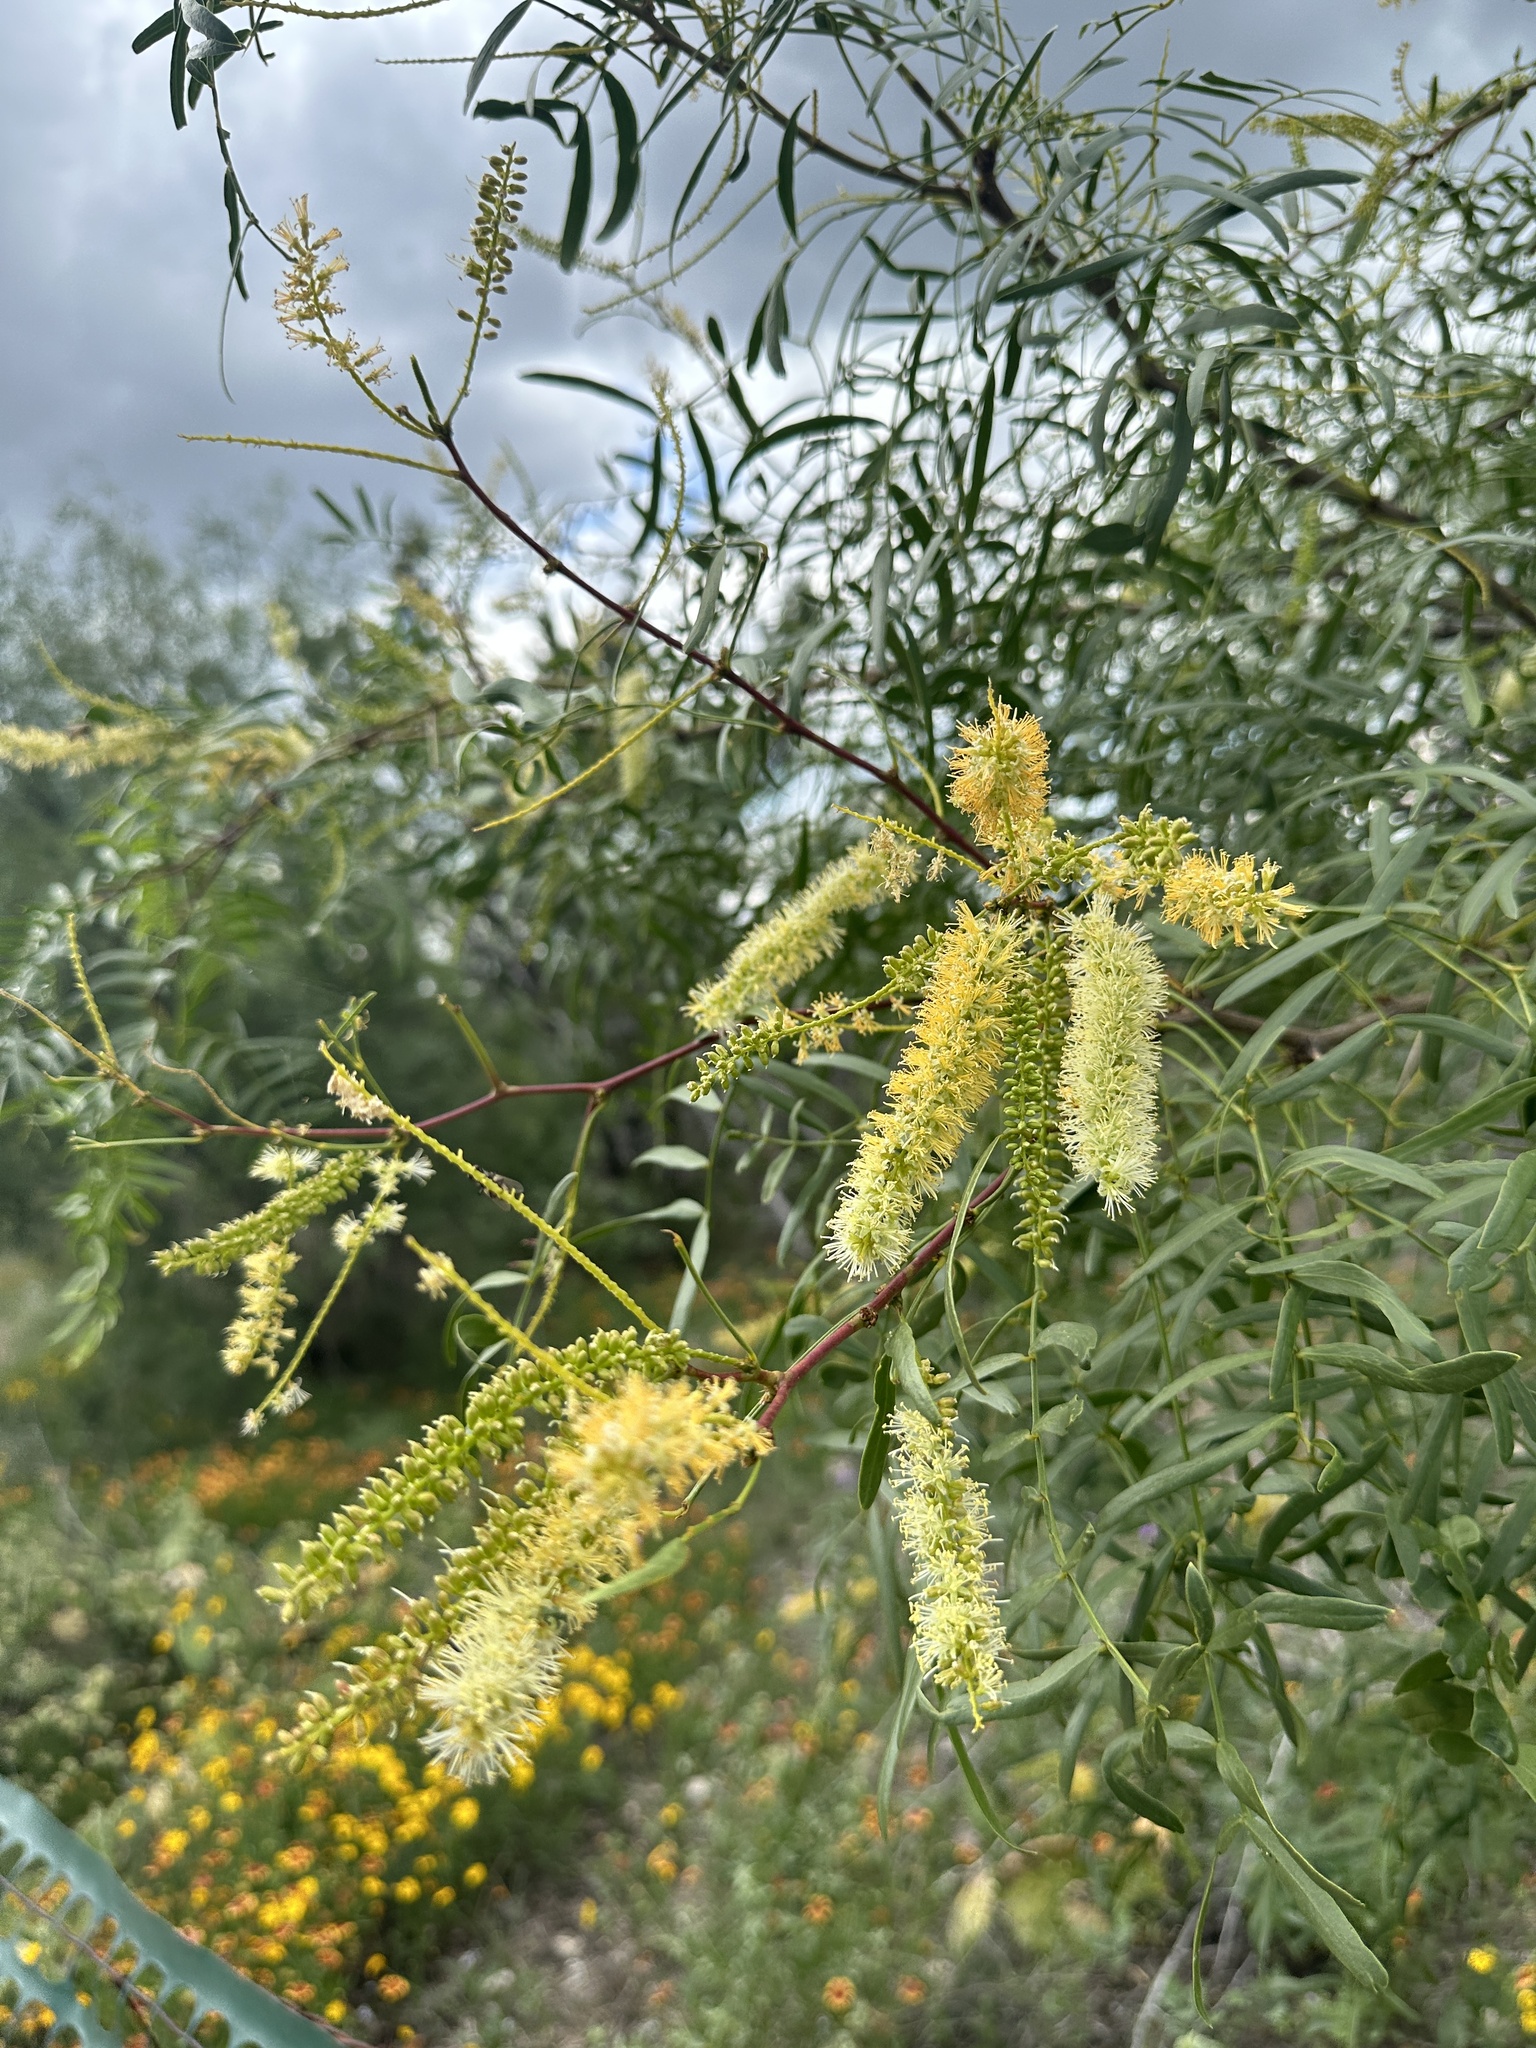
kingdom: Plantae
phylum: Tracheophyta
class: Magnoliopsida
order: Fabales
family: Fabaceae
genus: Prosopis
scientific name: Prosopis glandulosa
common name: Honey mesquite
